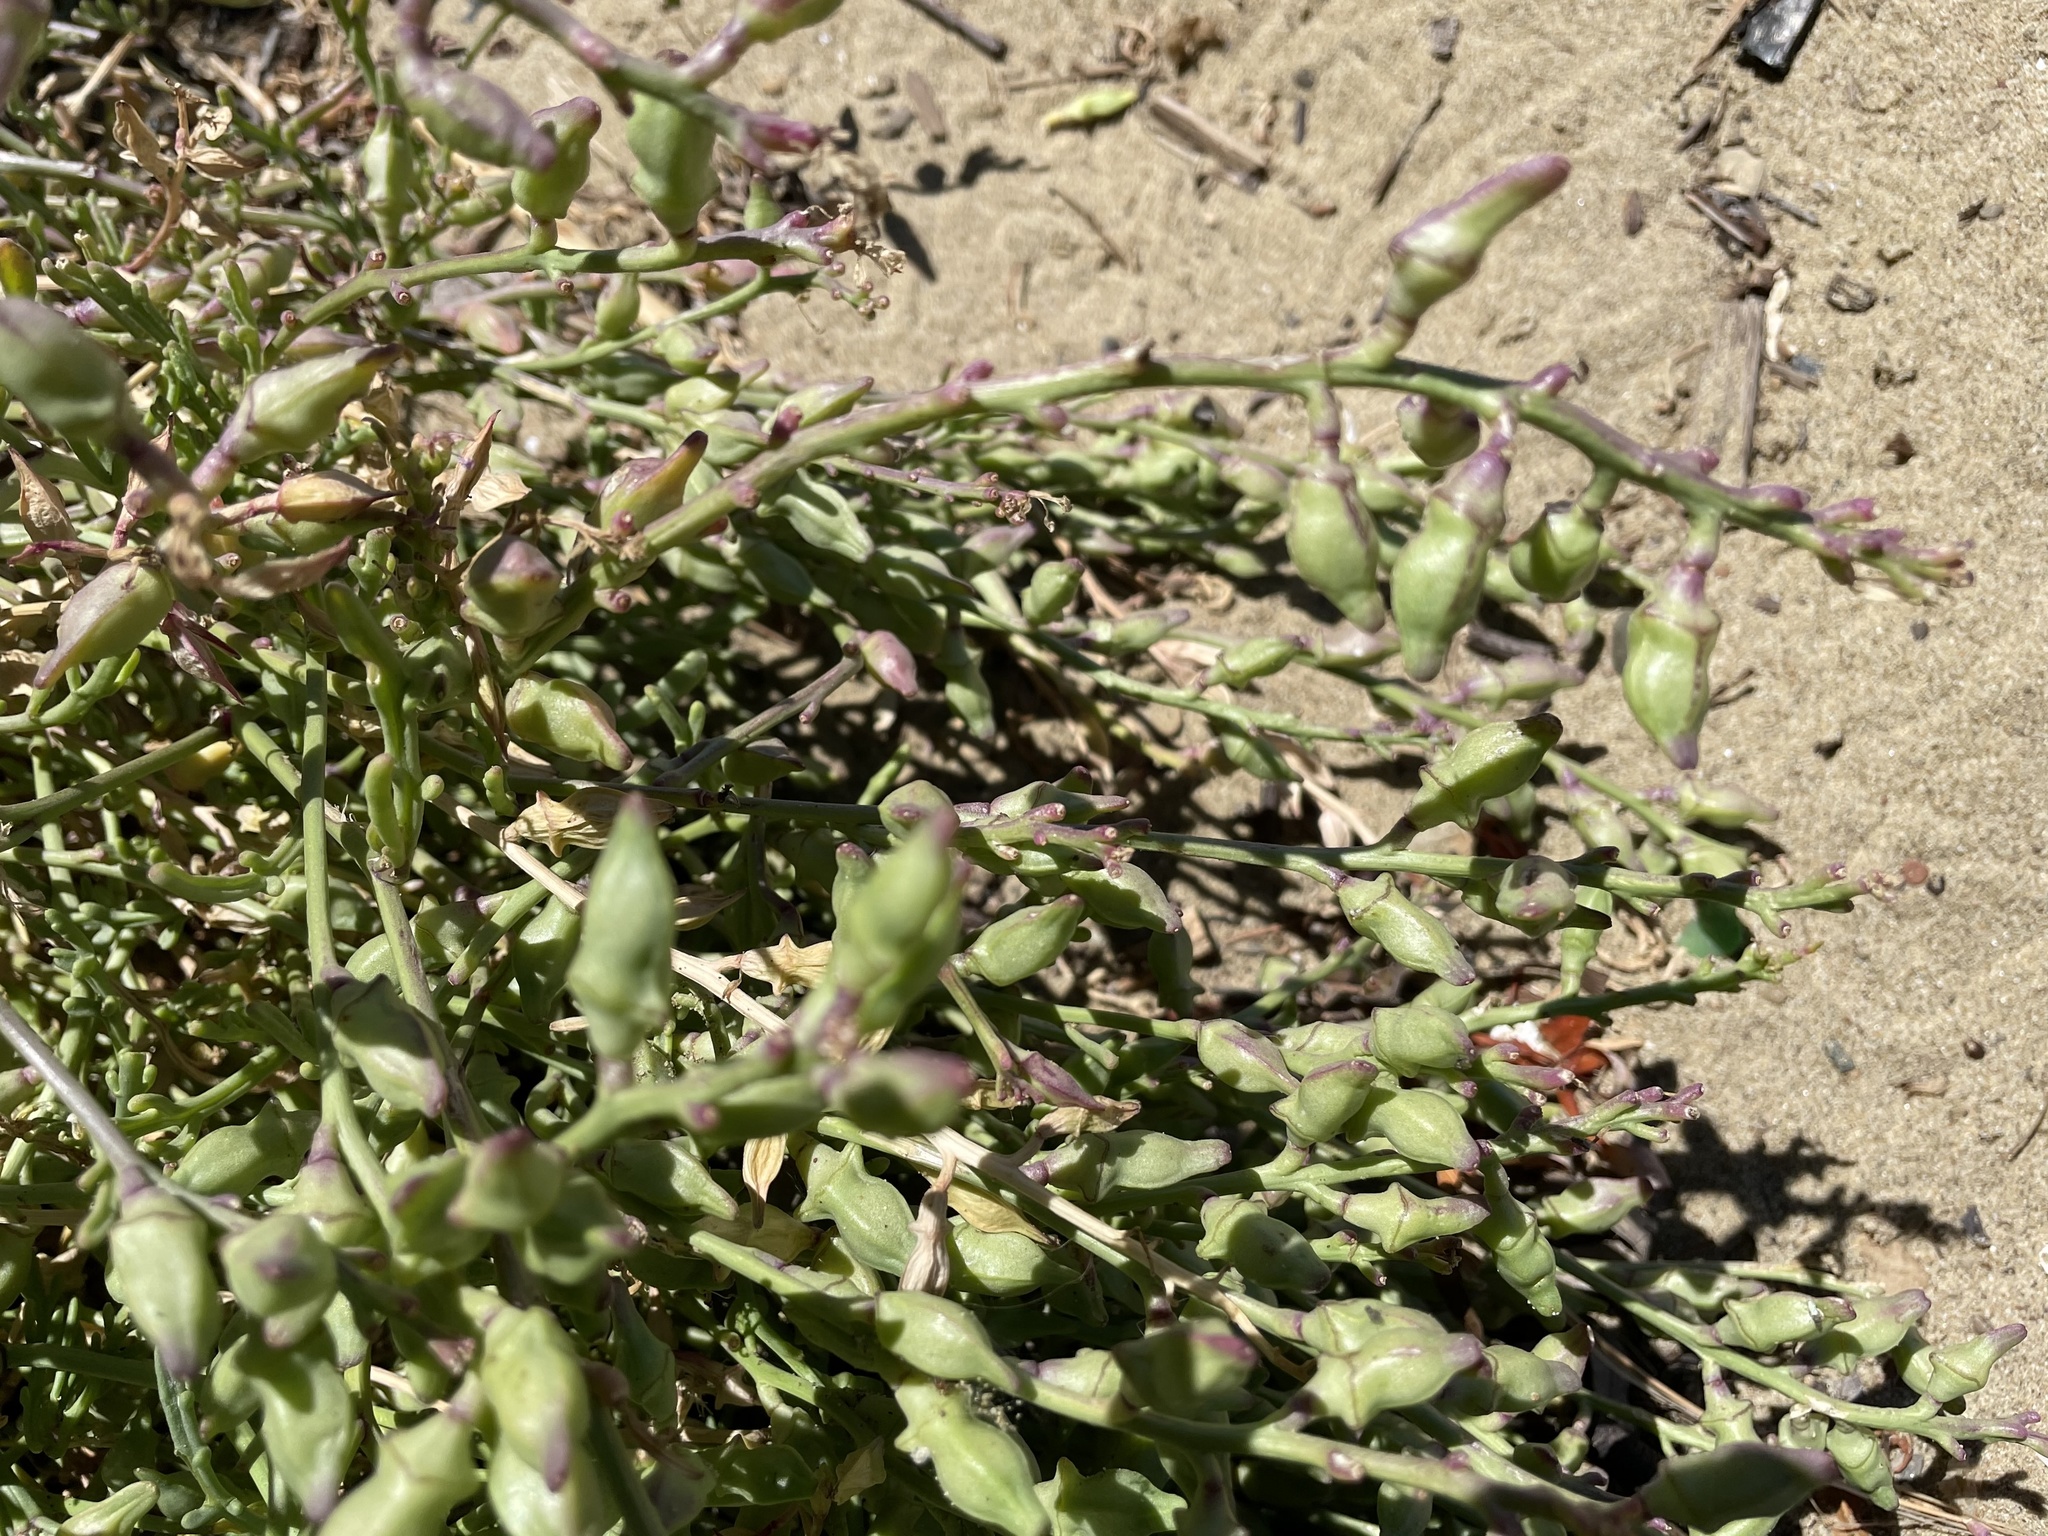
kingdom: Plantae
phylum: Tracheophyta
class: Magnoliopsida
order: Brassicales
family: Brassicaceae
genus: Cakile
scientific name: Cakile maritima
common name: Sea rocket
